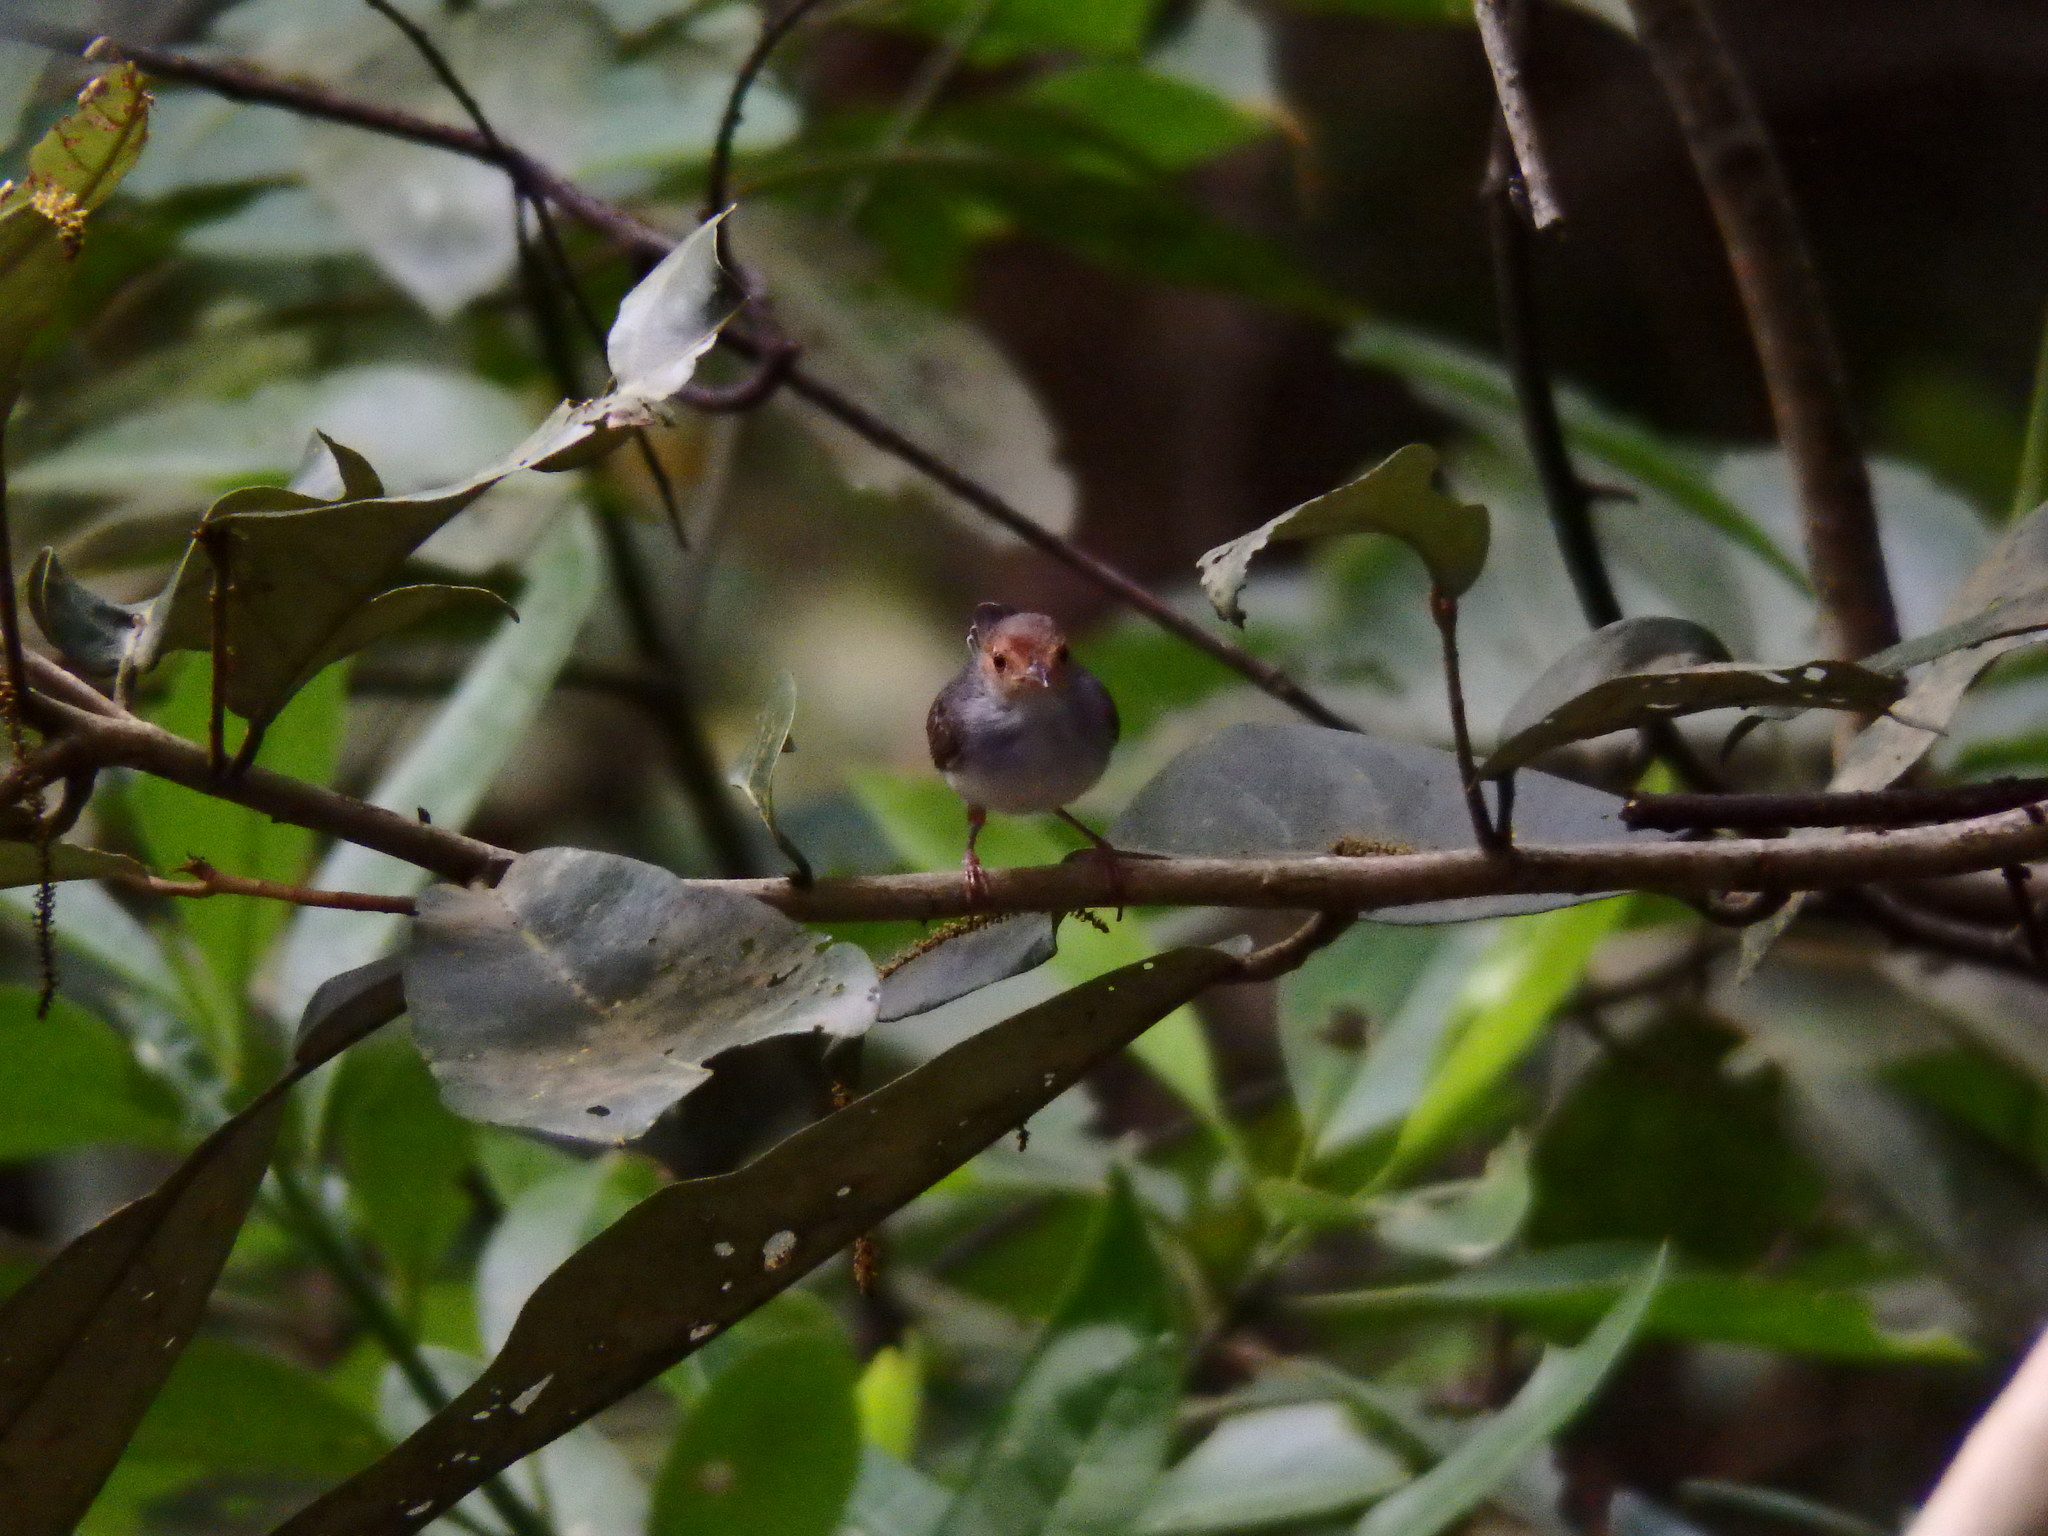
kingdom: Animalia
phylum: Chordata
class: Aves
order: Passeriformes
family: Cisticolidae
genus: Orthotomus
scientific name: Orthotomus ruficeps
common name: Ashy tailorbird
